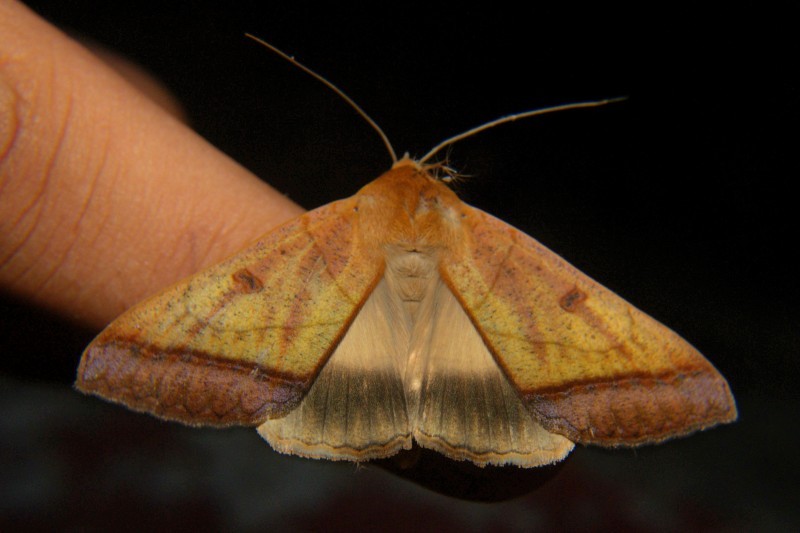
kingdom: Animalia
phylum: Arthropoda
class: Insecta
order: Lepidoptera
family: Erebidae
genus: Ophiusa
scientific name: Ophiusa trapezium
